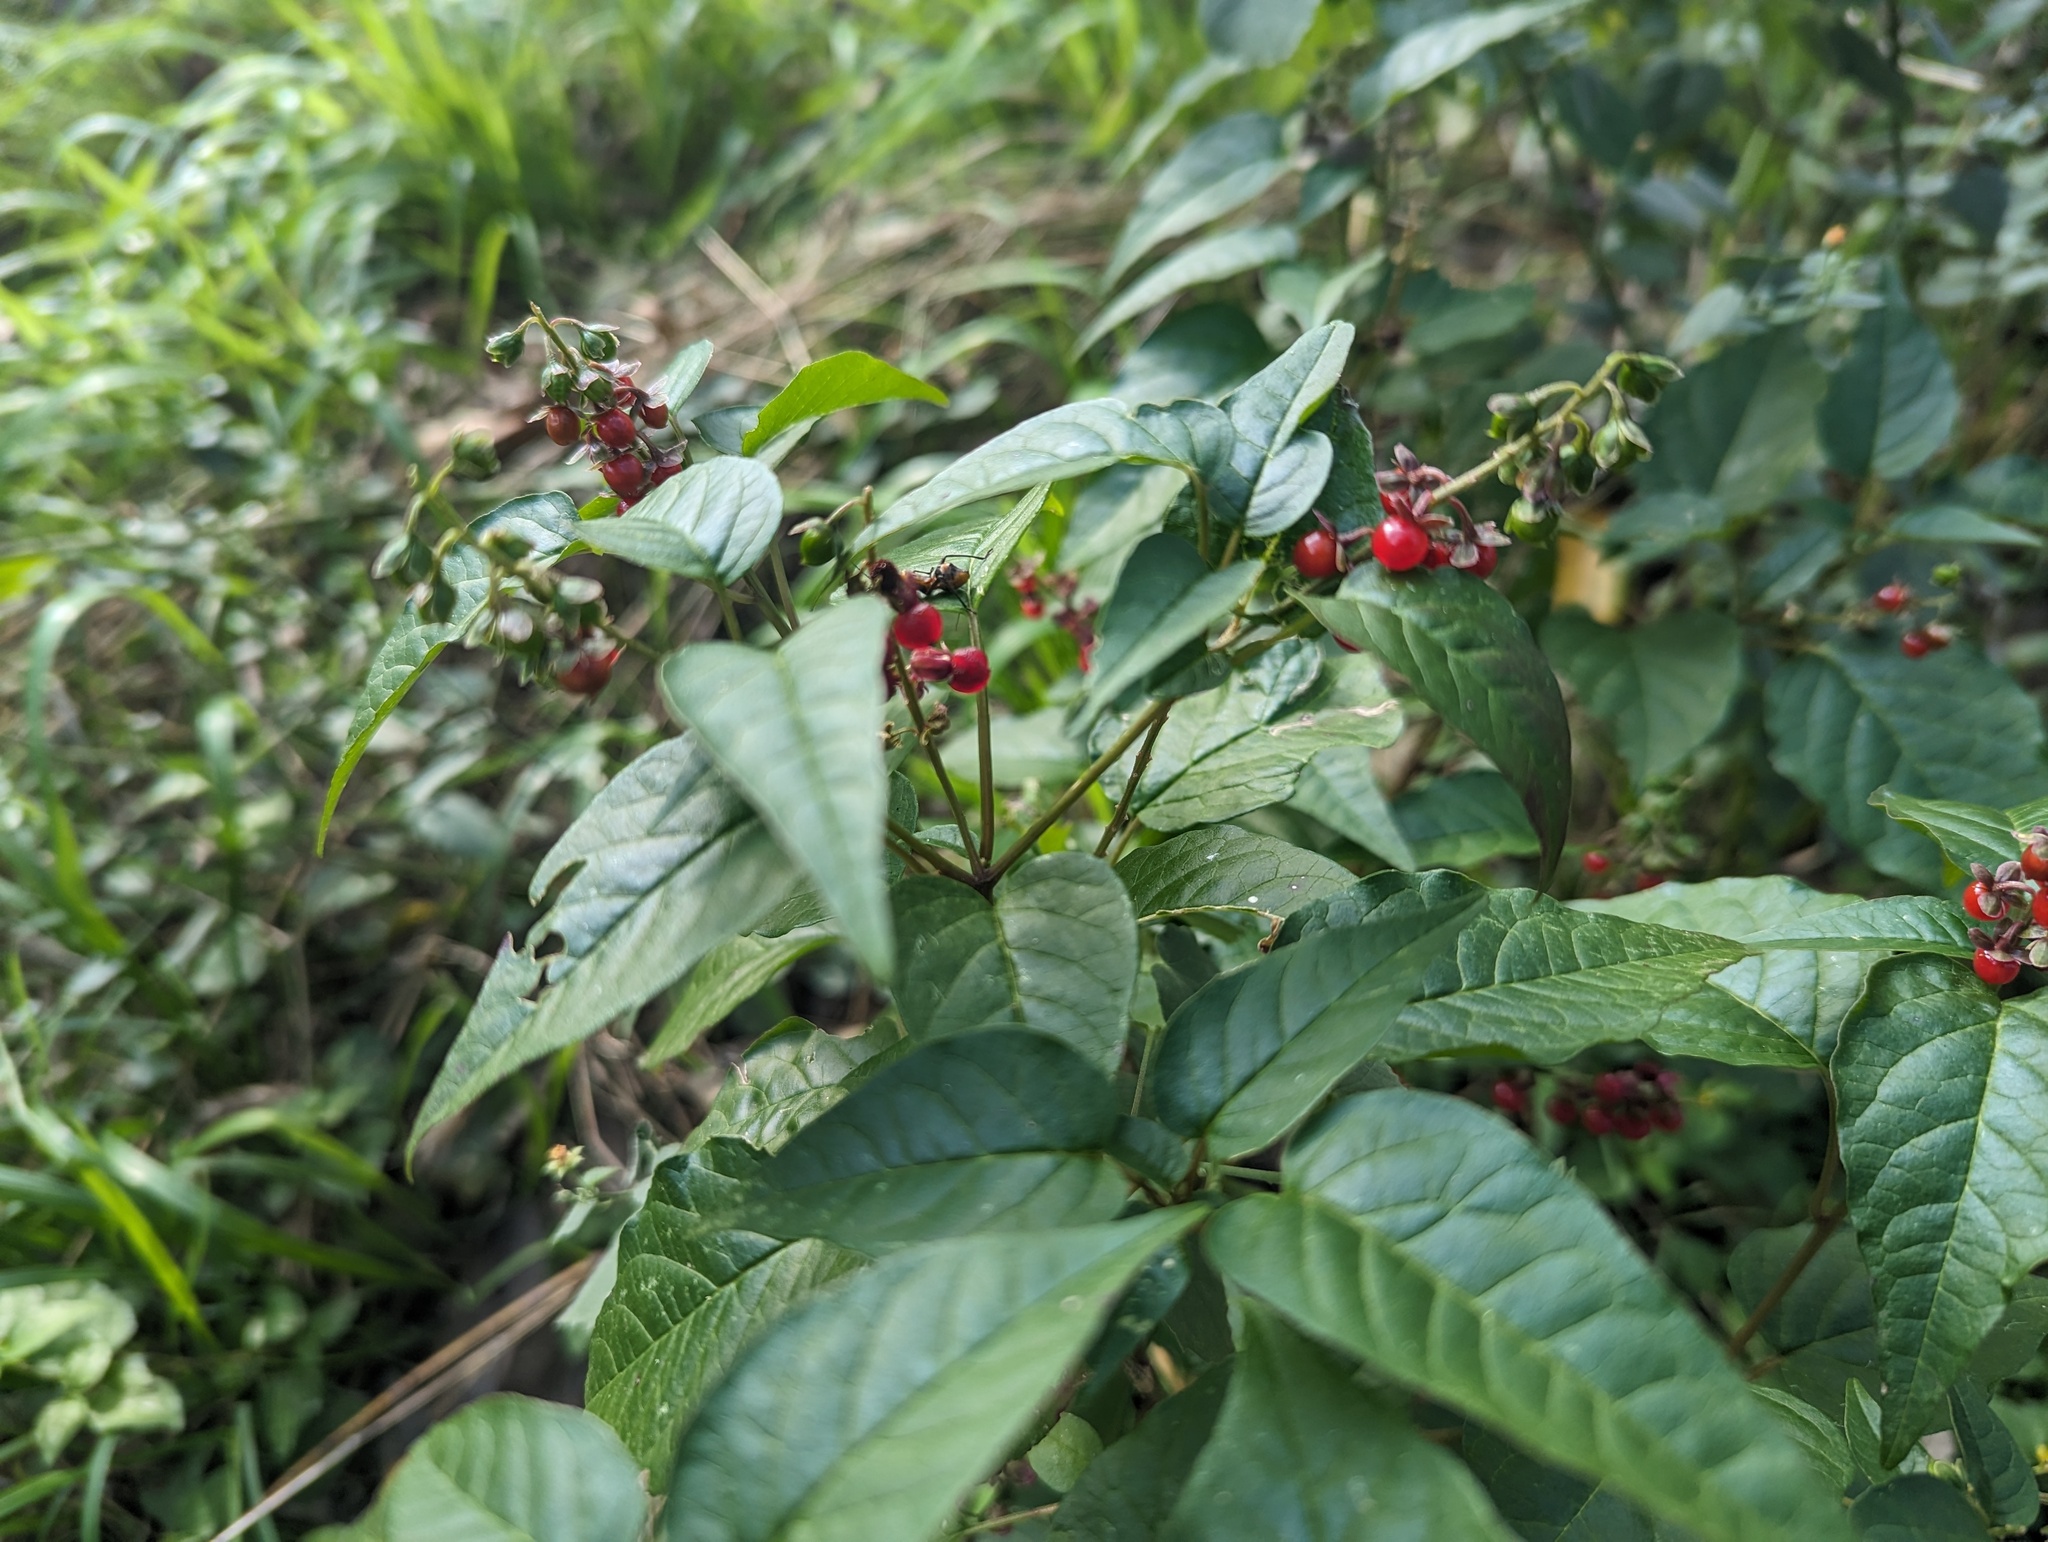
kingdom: Plantae
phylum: Tracheophyta
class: Magnoliopsida
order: Caryophyllales
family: Phytolaccaceae
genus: Rivina
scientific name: Rivina humilis
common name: Rougeplant
